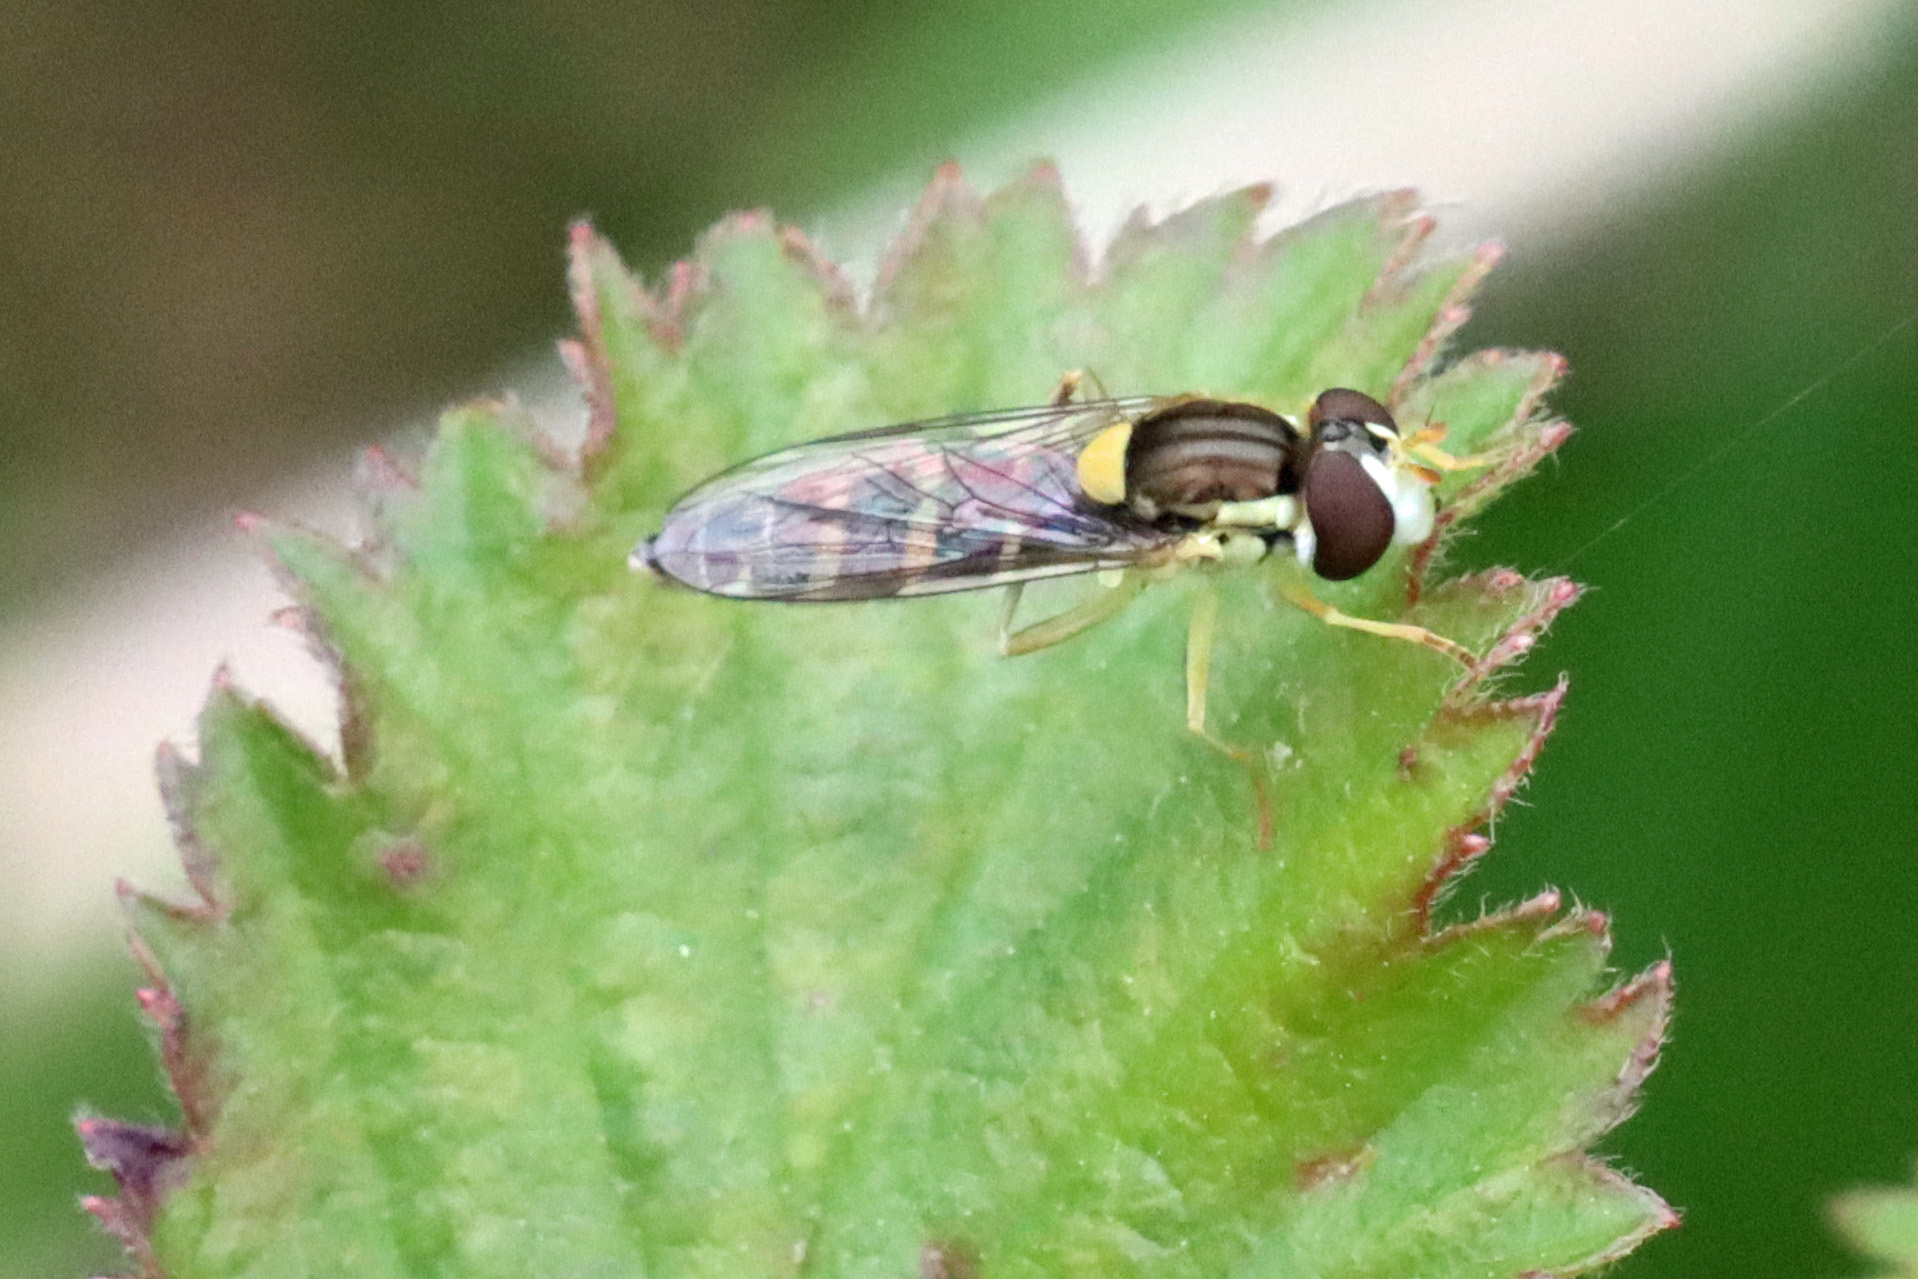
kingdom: Animalia
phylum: Arthropoda
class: Insecta
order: Diptera
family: Syrphidae
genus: Sphaerophoria
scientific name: Sphaerophoria
